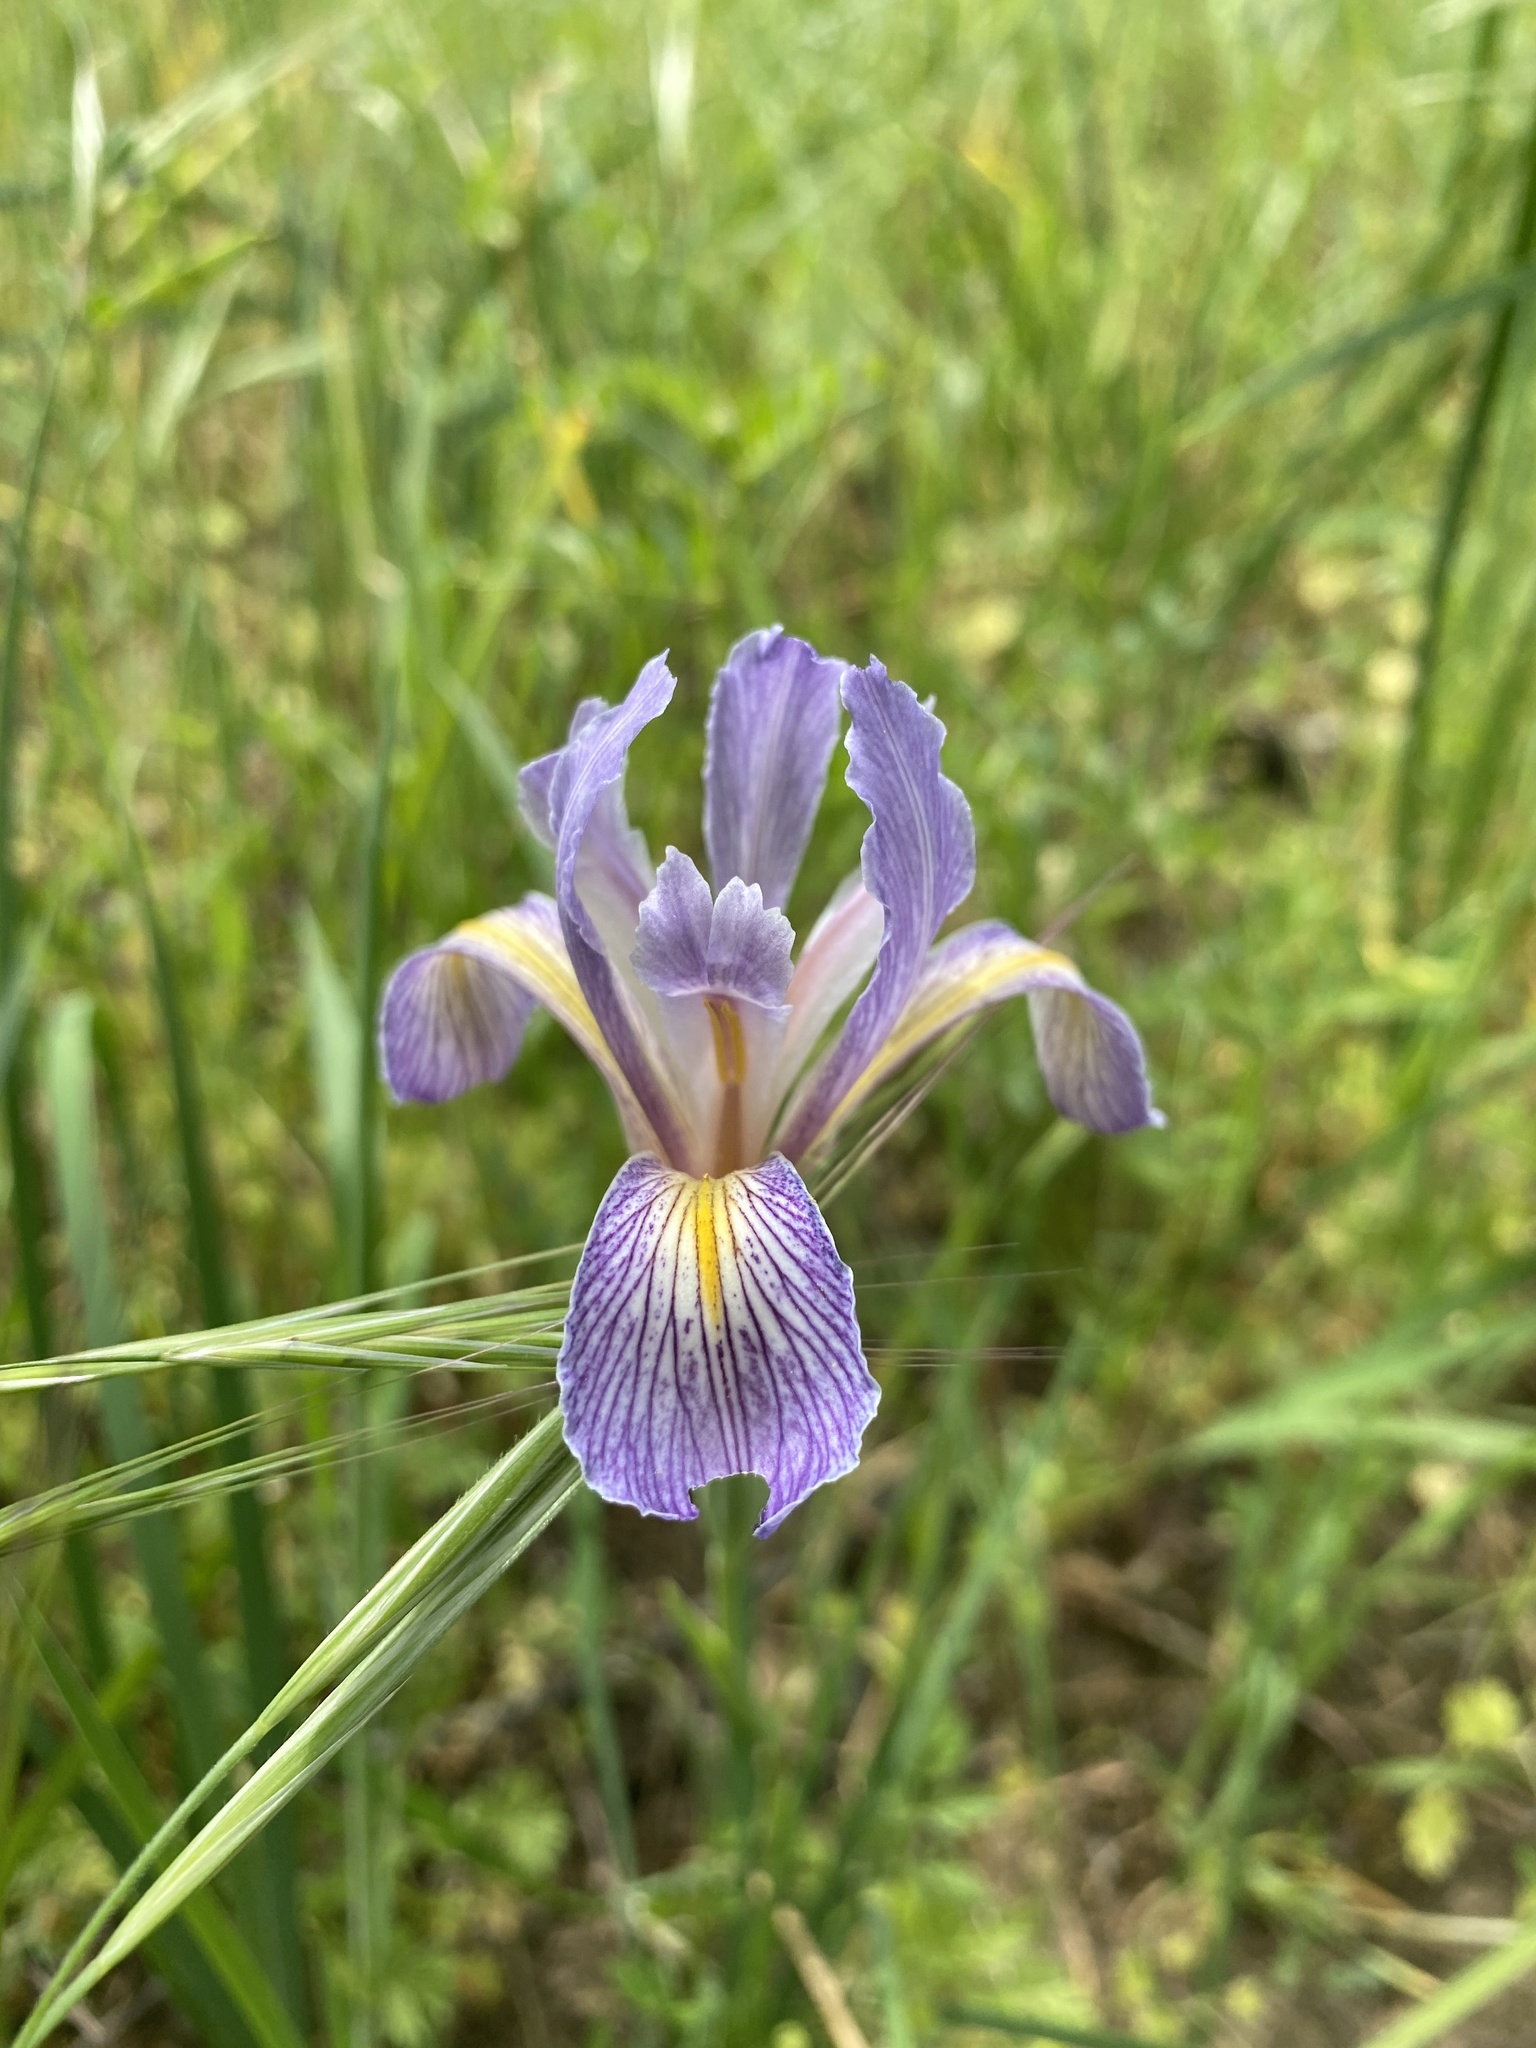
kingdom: Plantae
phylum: Tracheophyta
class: Liliopsida
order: Asparagales
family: Iridaceae
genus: Iris
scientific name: Iris macrosiphon
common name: Ground iris
